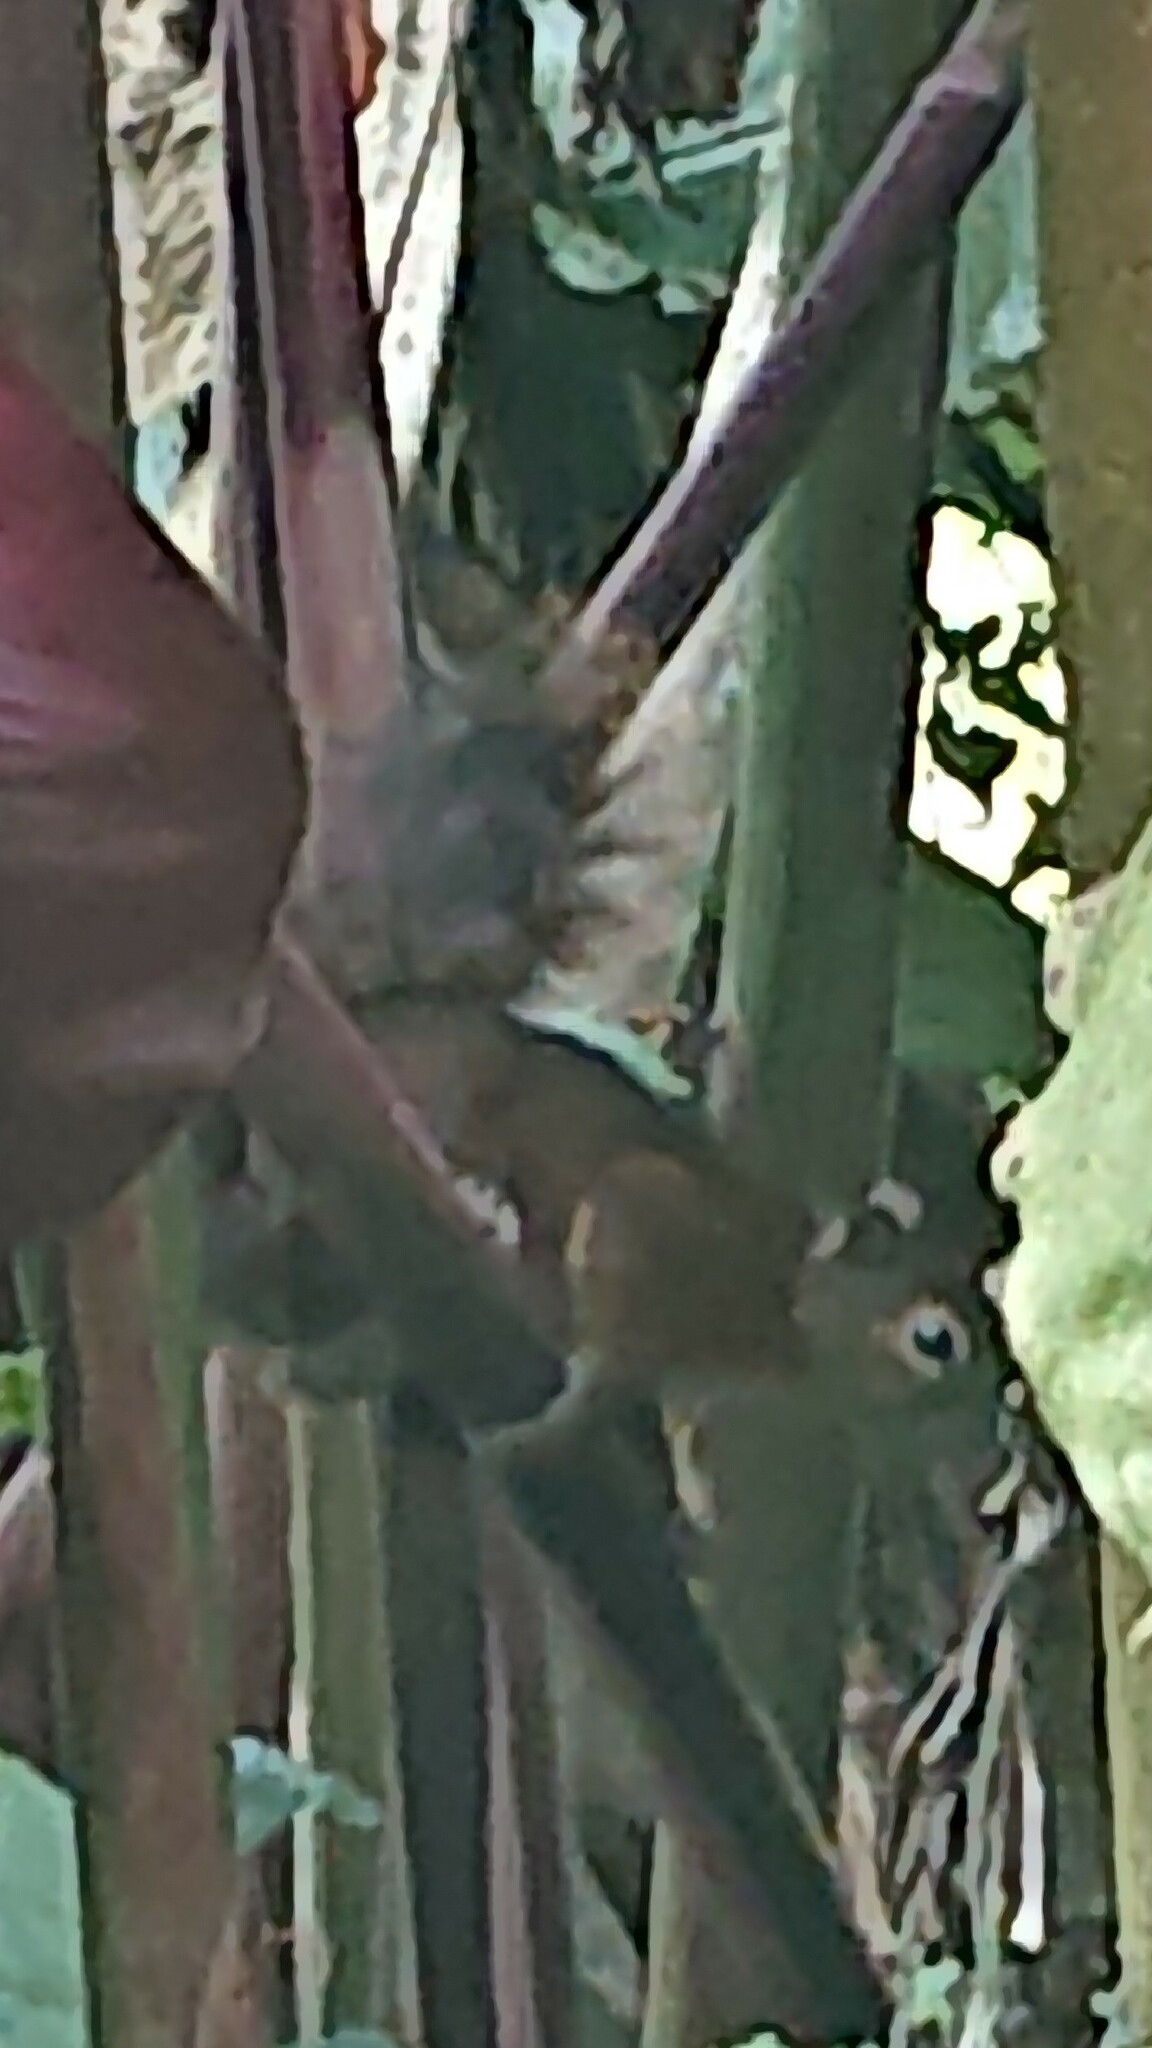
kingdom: Animalia
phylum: Chordata
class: Mammalia
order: Rodentia
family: Sciuridae
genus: Sciurus
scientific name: Sciurus granatensis
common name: Red-tailed squirrel
